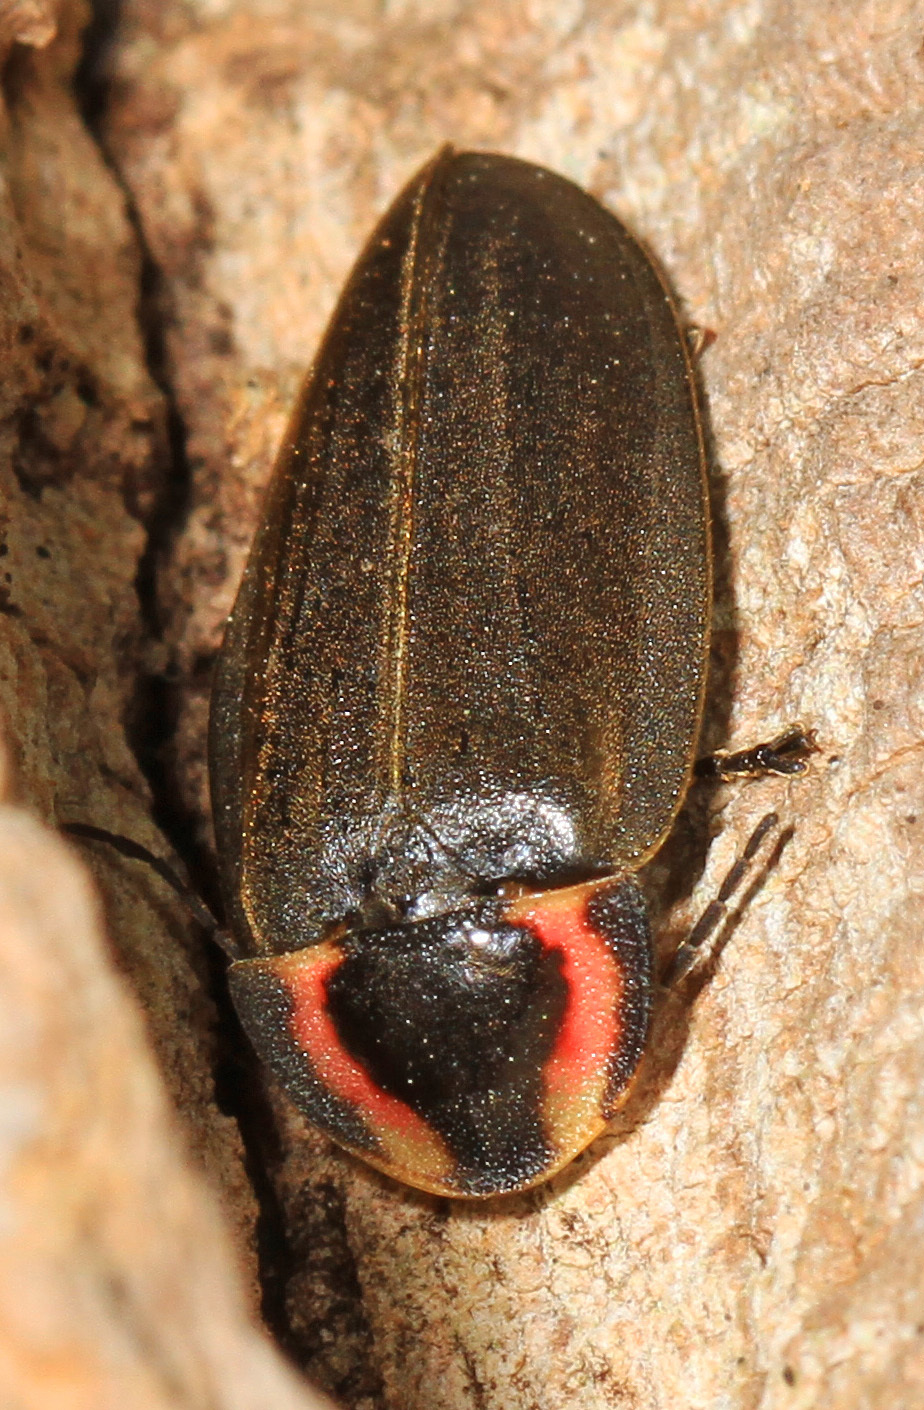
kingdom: Animalia
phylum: Arthropoda
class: Insecta
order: Coleoptera
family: Lampyridae
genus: Photinus
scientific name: Photinus corrusca
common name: Winter firefly
